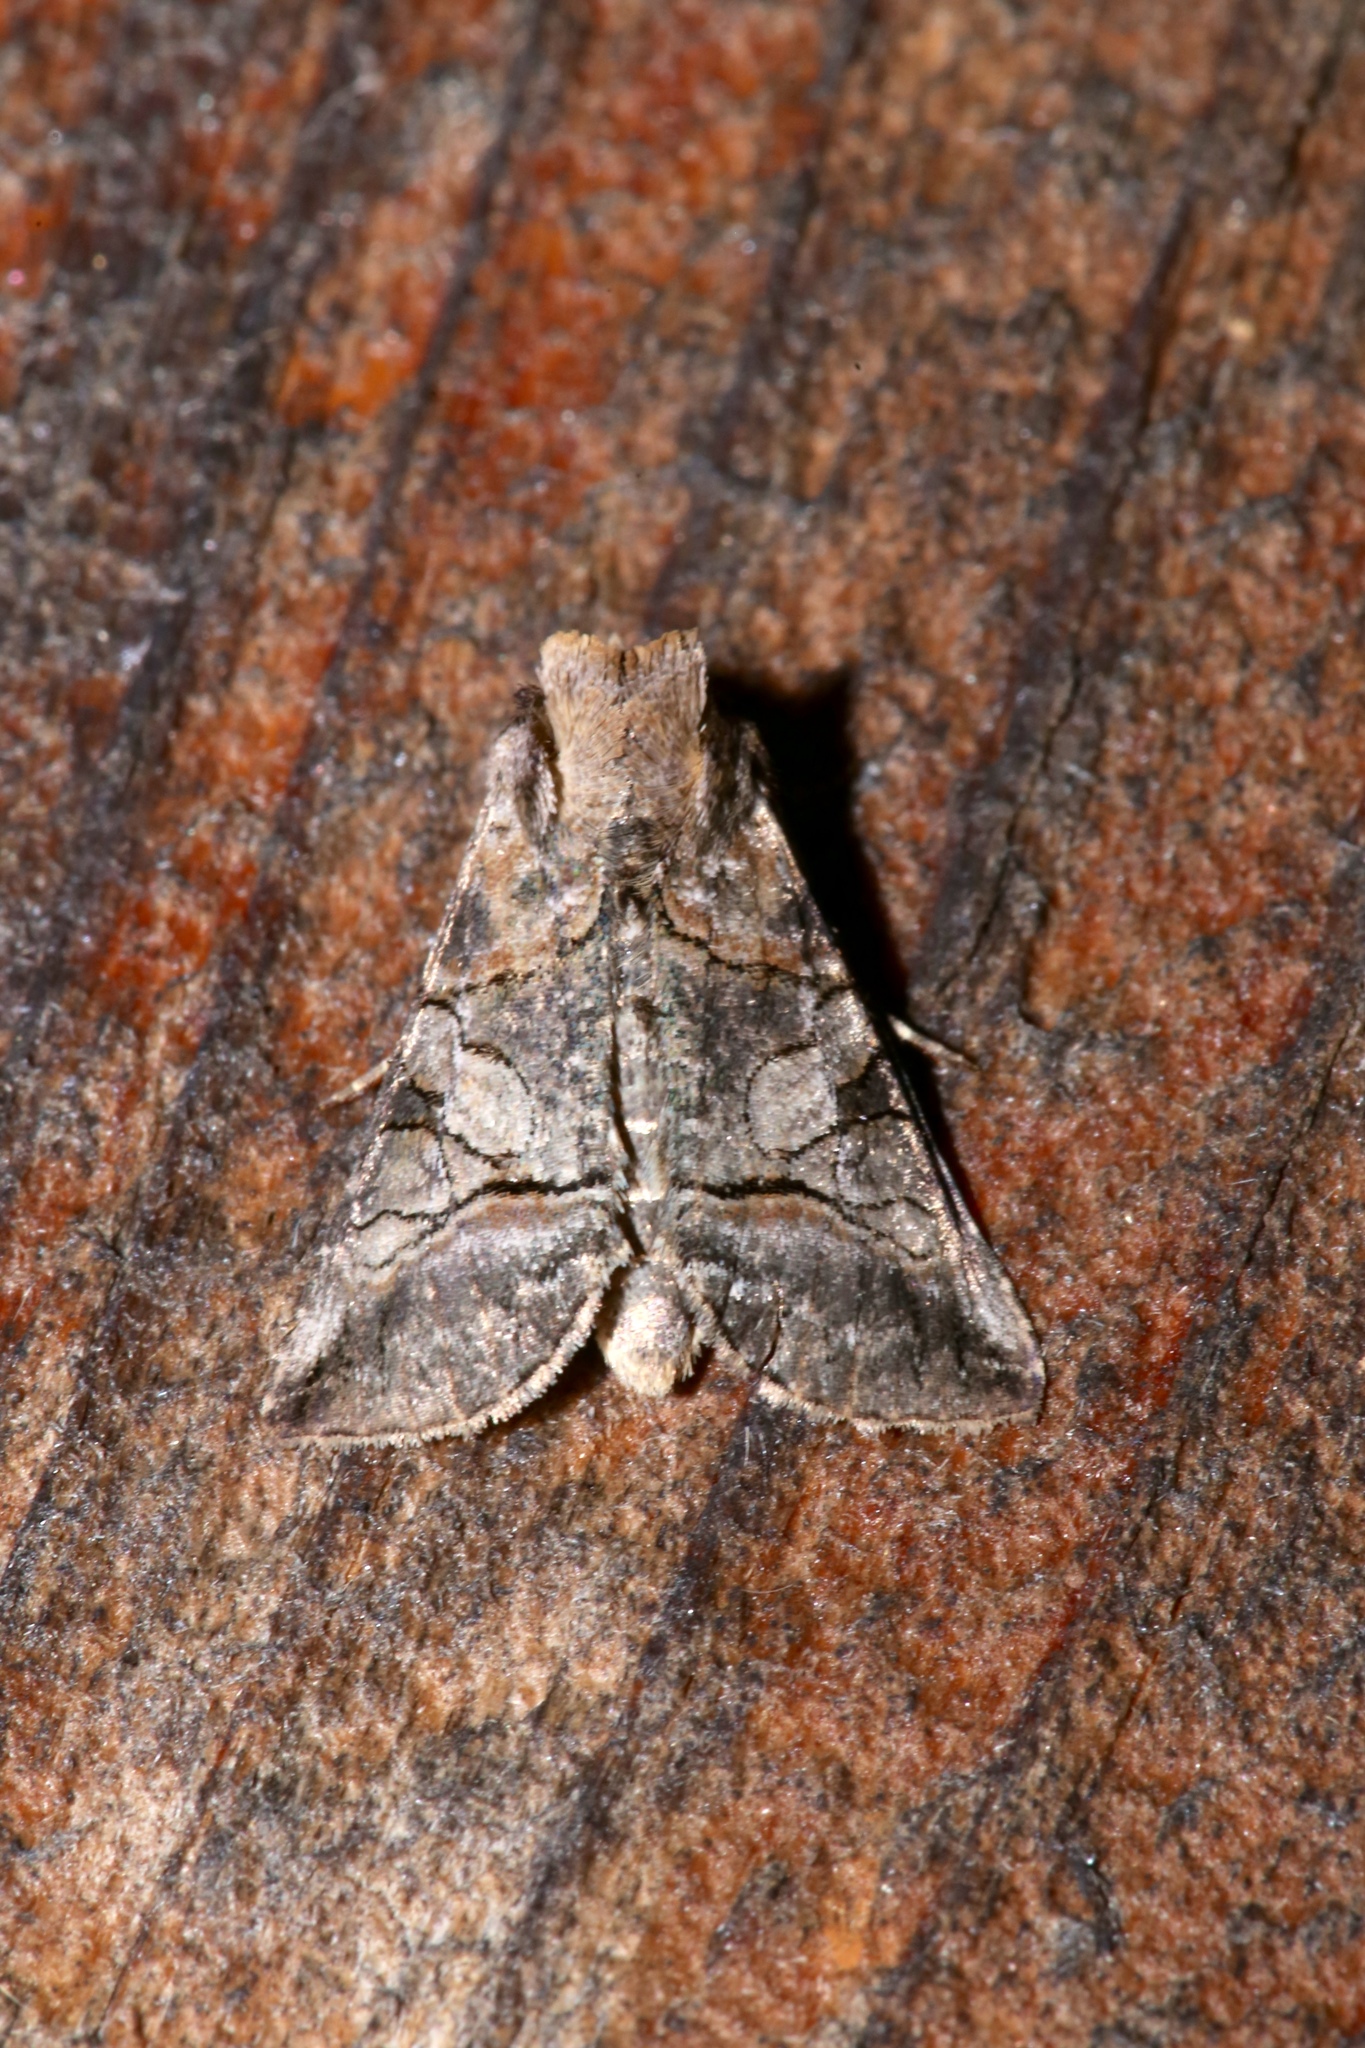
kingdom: Animalia
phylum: Arthropoda
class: Insecta
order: Lepidoptera
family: Noctuidae
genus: Abrostola
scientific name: Abrostola urentis
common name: Spectacled nettle moth
